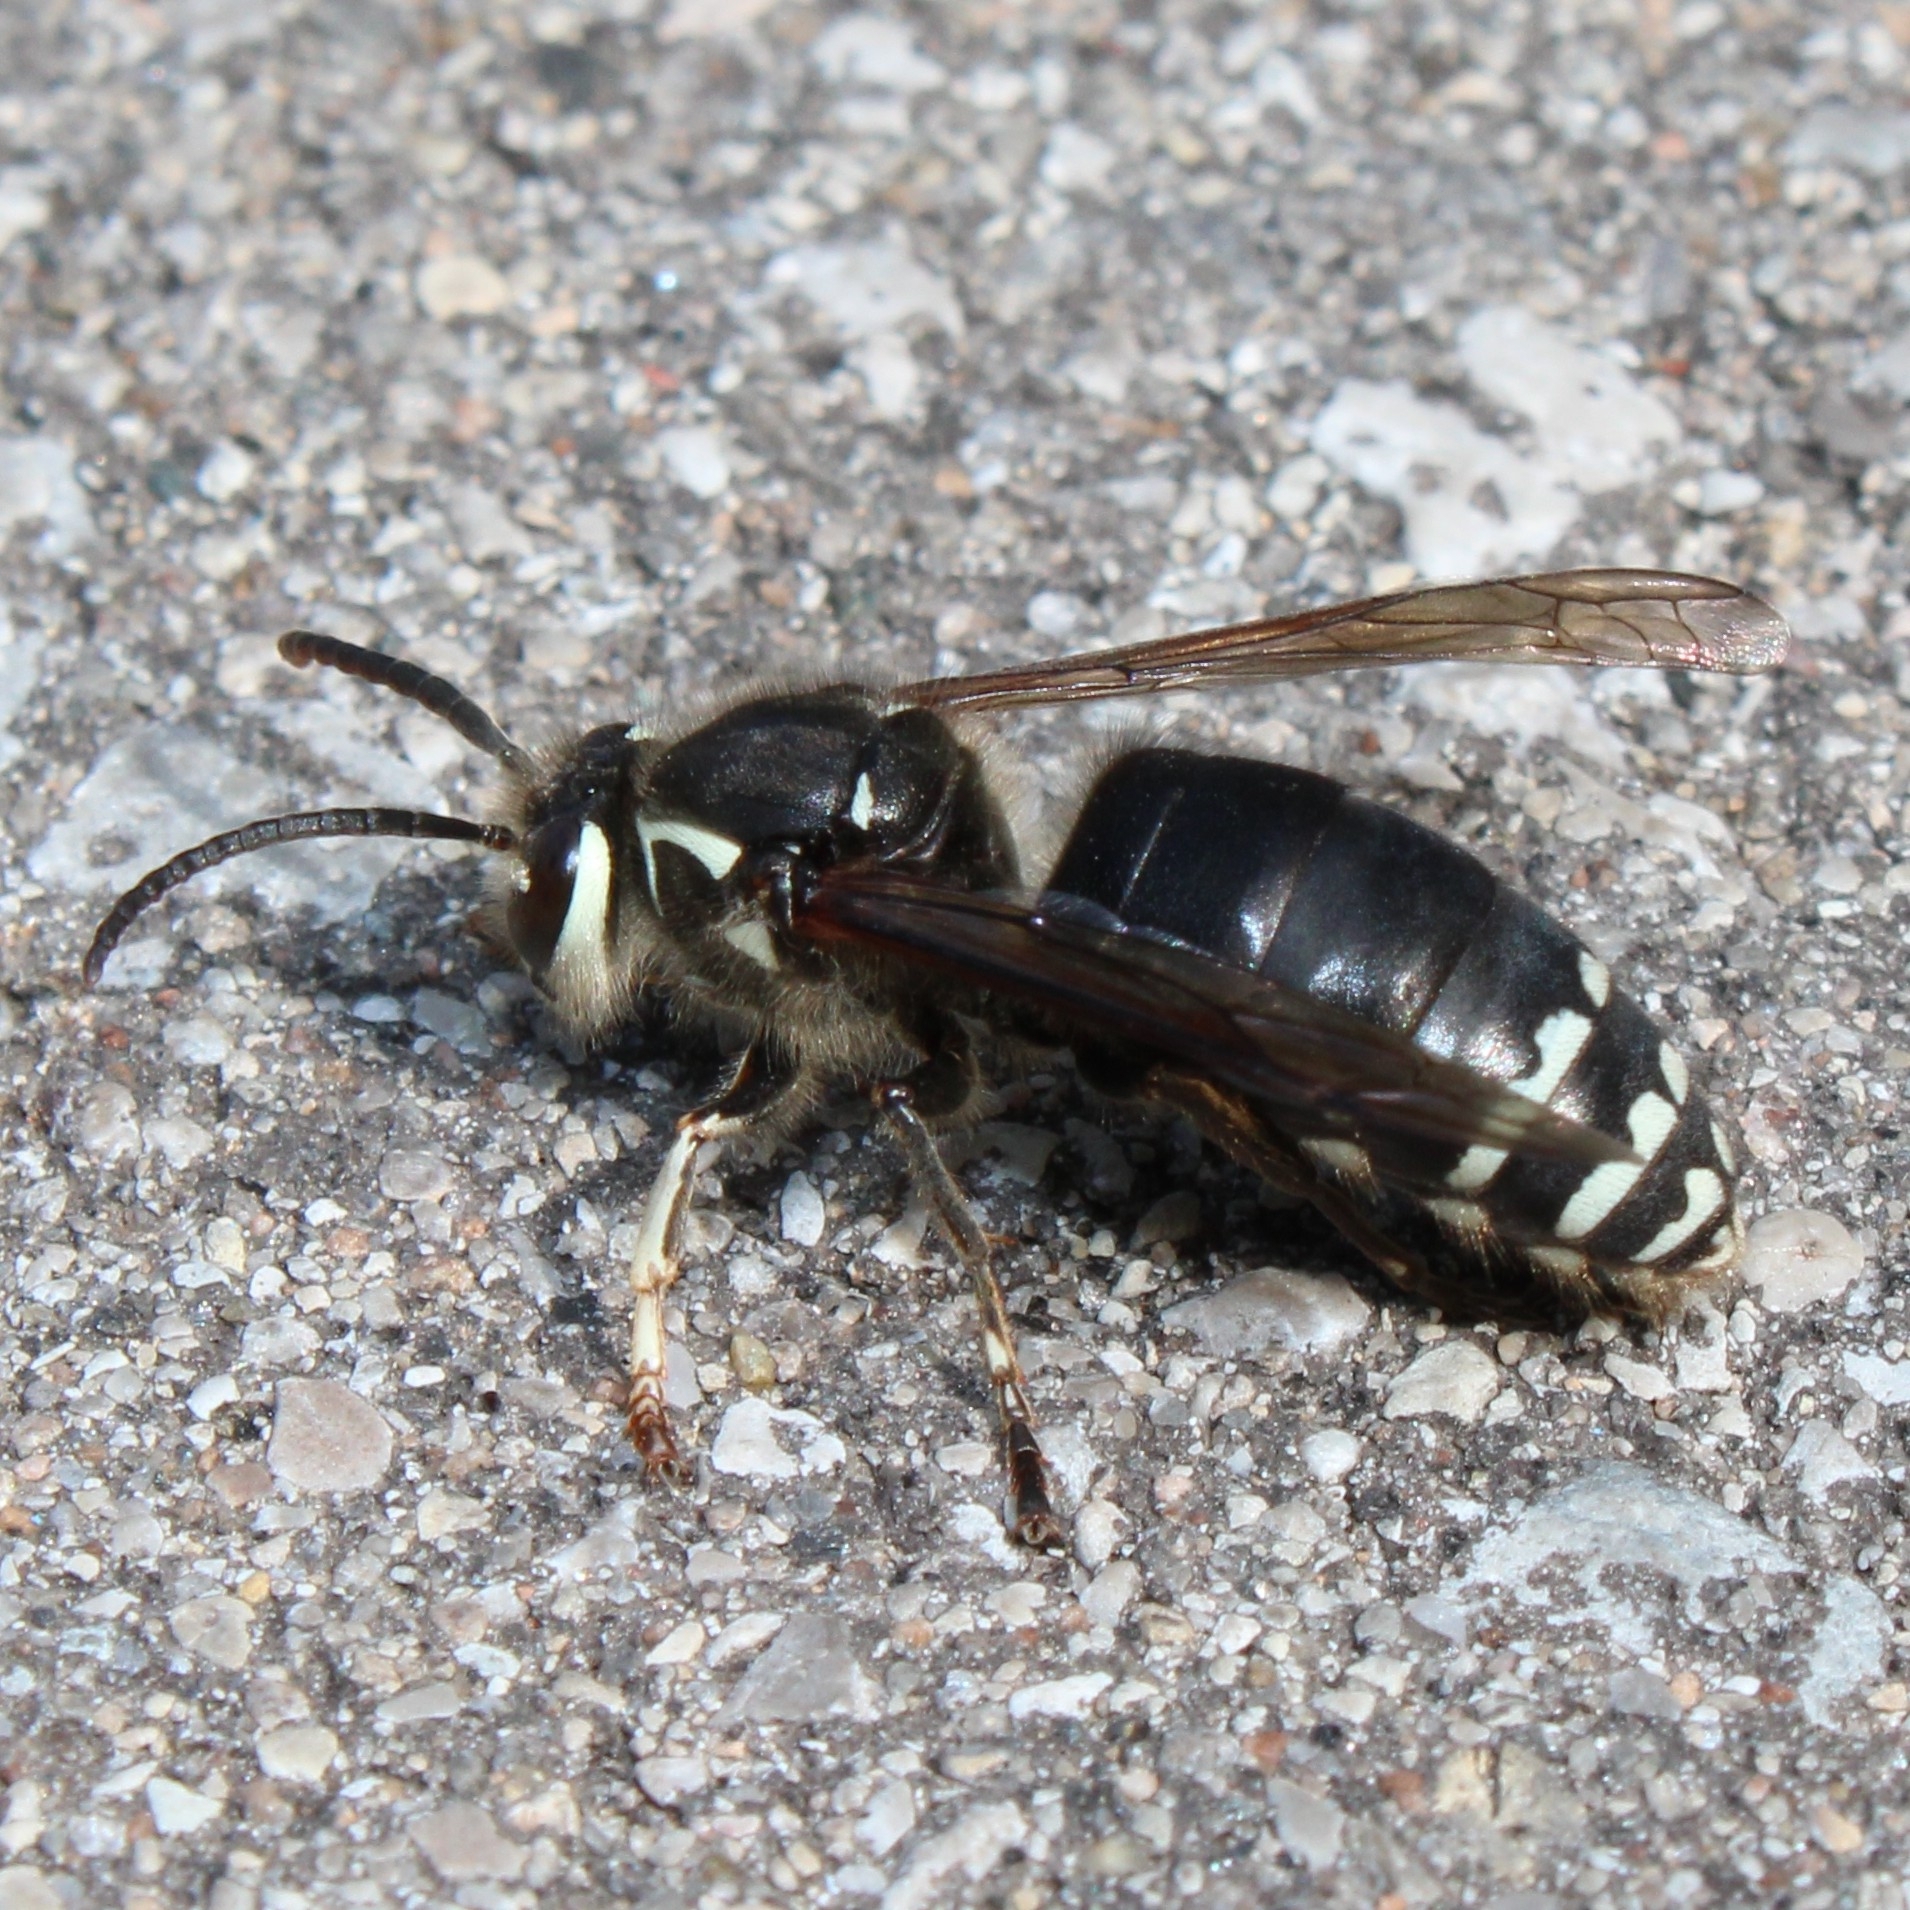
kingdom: Animalia
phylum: Arthropoda
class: Insecta
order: Hymenoptera
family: Vespidae
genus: Dolichovespula
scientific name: Dolichovespula maculata
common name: Bald-faced hornet
